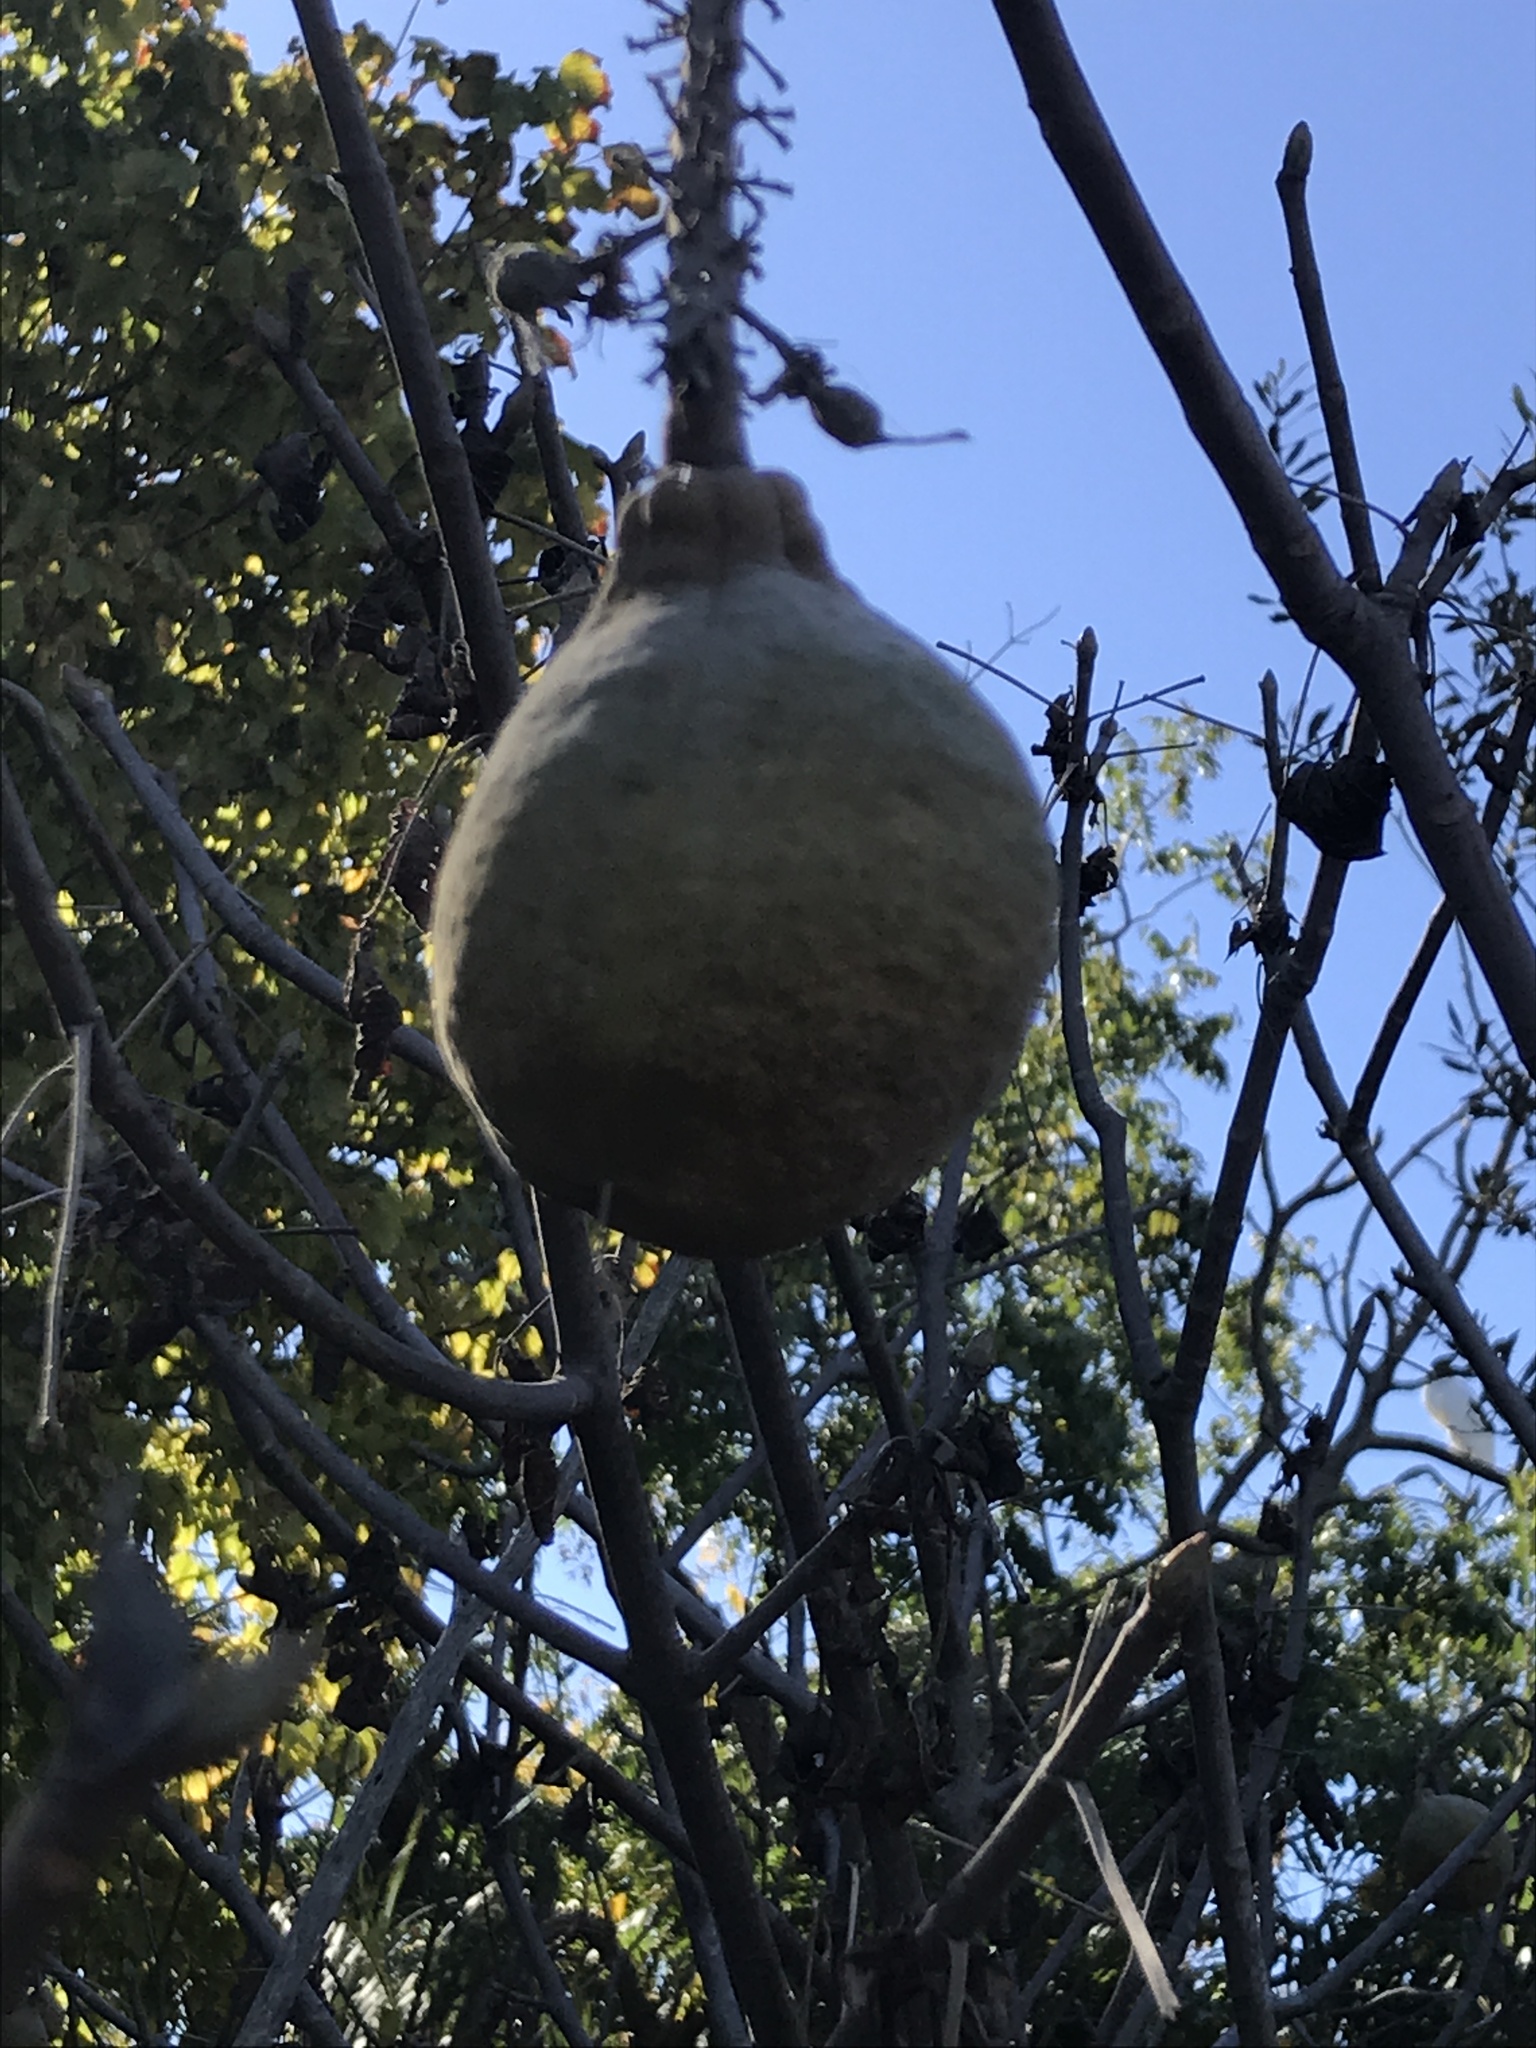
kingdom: Plantae
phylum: Tracheophyta
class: Magnoliopsida
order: Sapindales
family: Sapindaceae
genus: Aesculus
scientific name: Aesculus californica
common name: California buckeye
